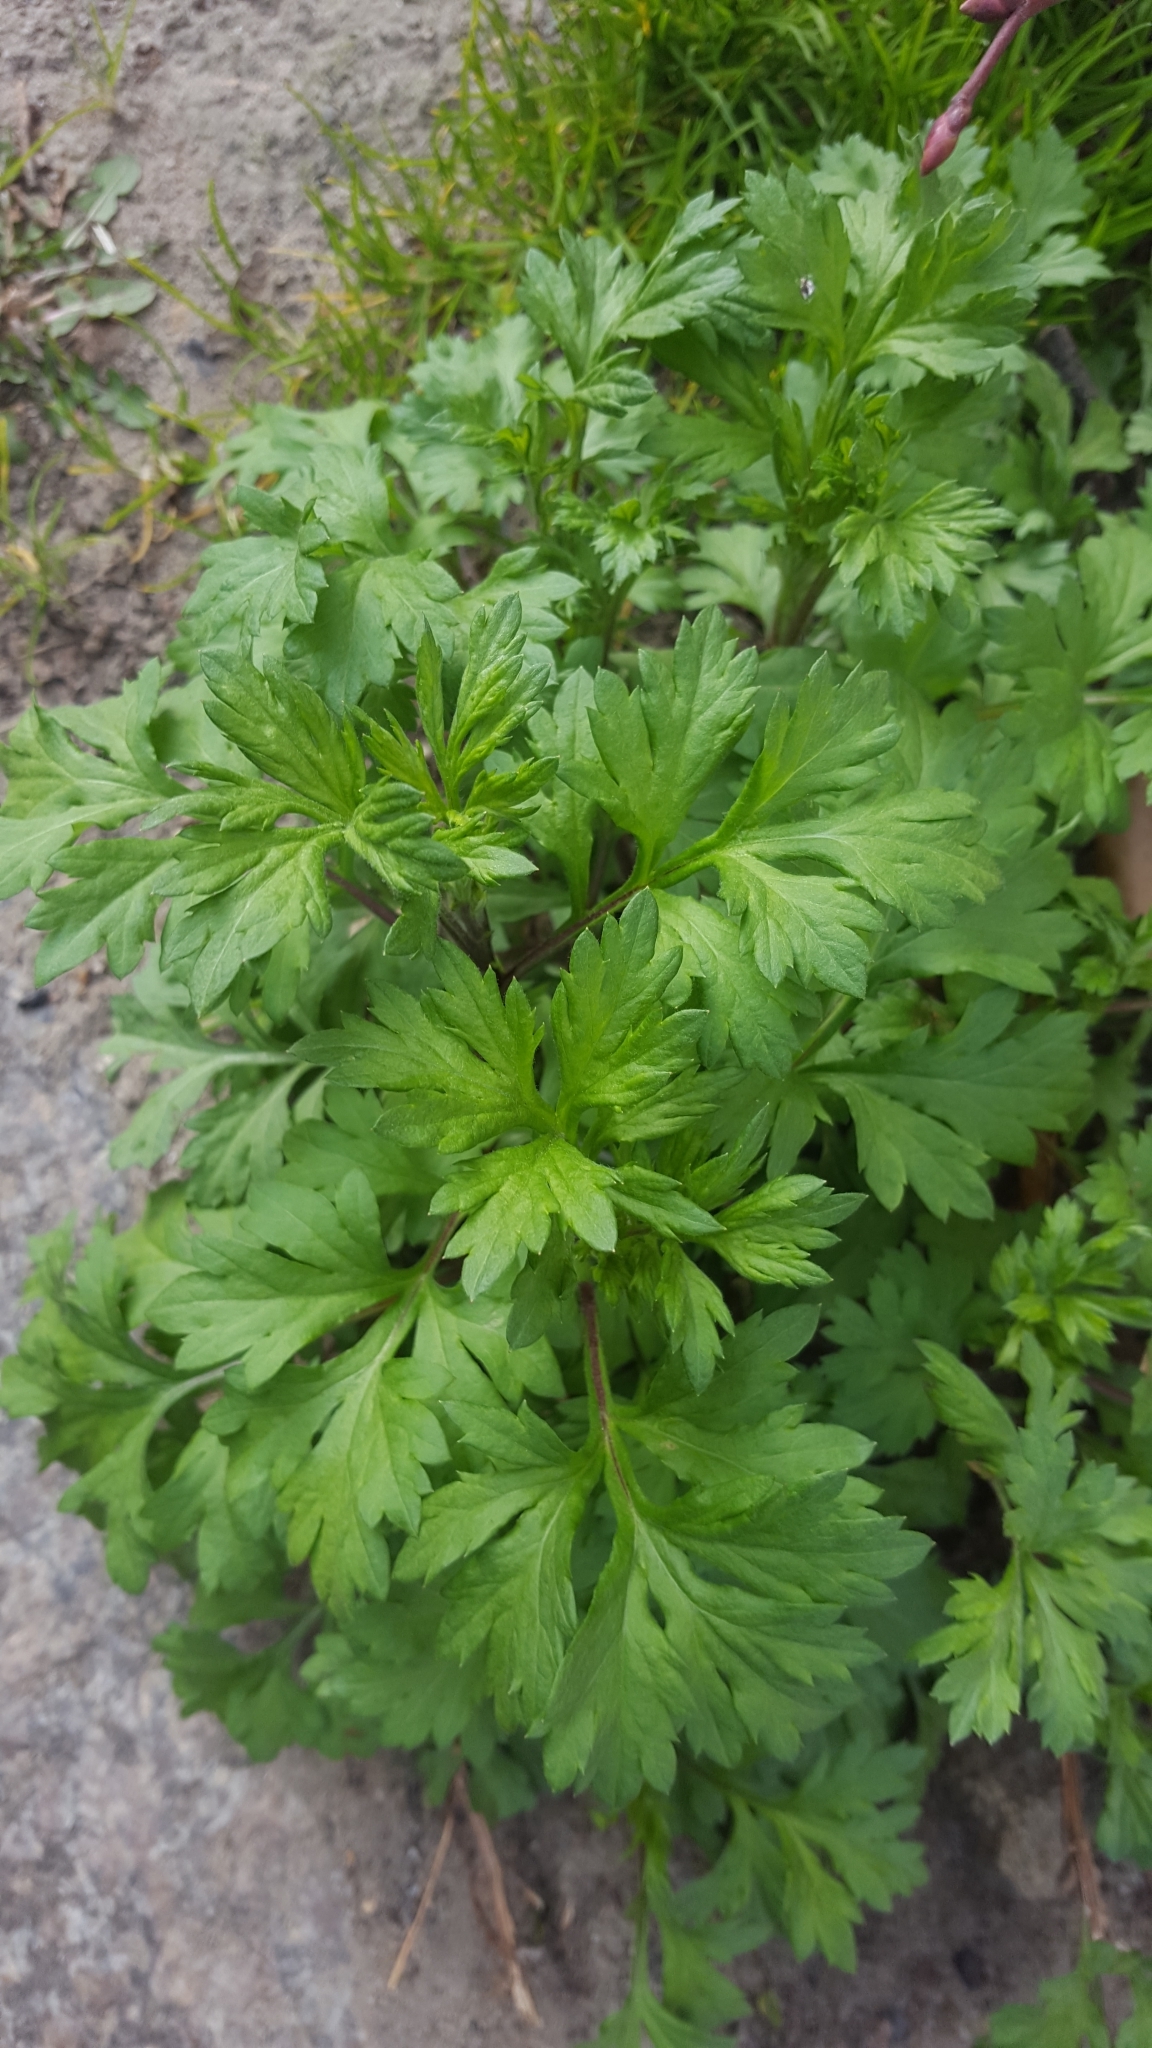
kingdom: Plantae
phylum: Tracheophyta
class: Magnoliopsida
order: Asterales
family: Asteraceae
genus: Artemisia
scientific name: Artemisia vulgaris
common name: Mugwort
